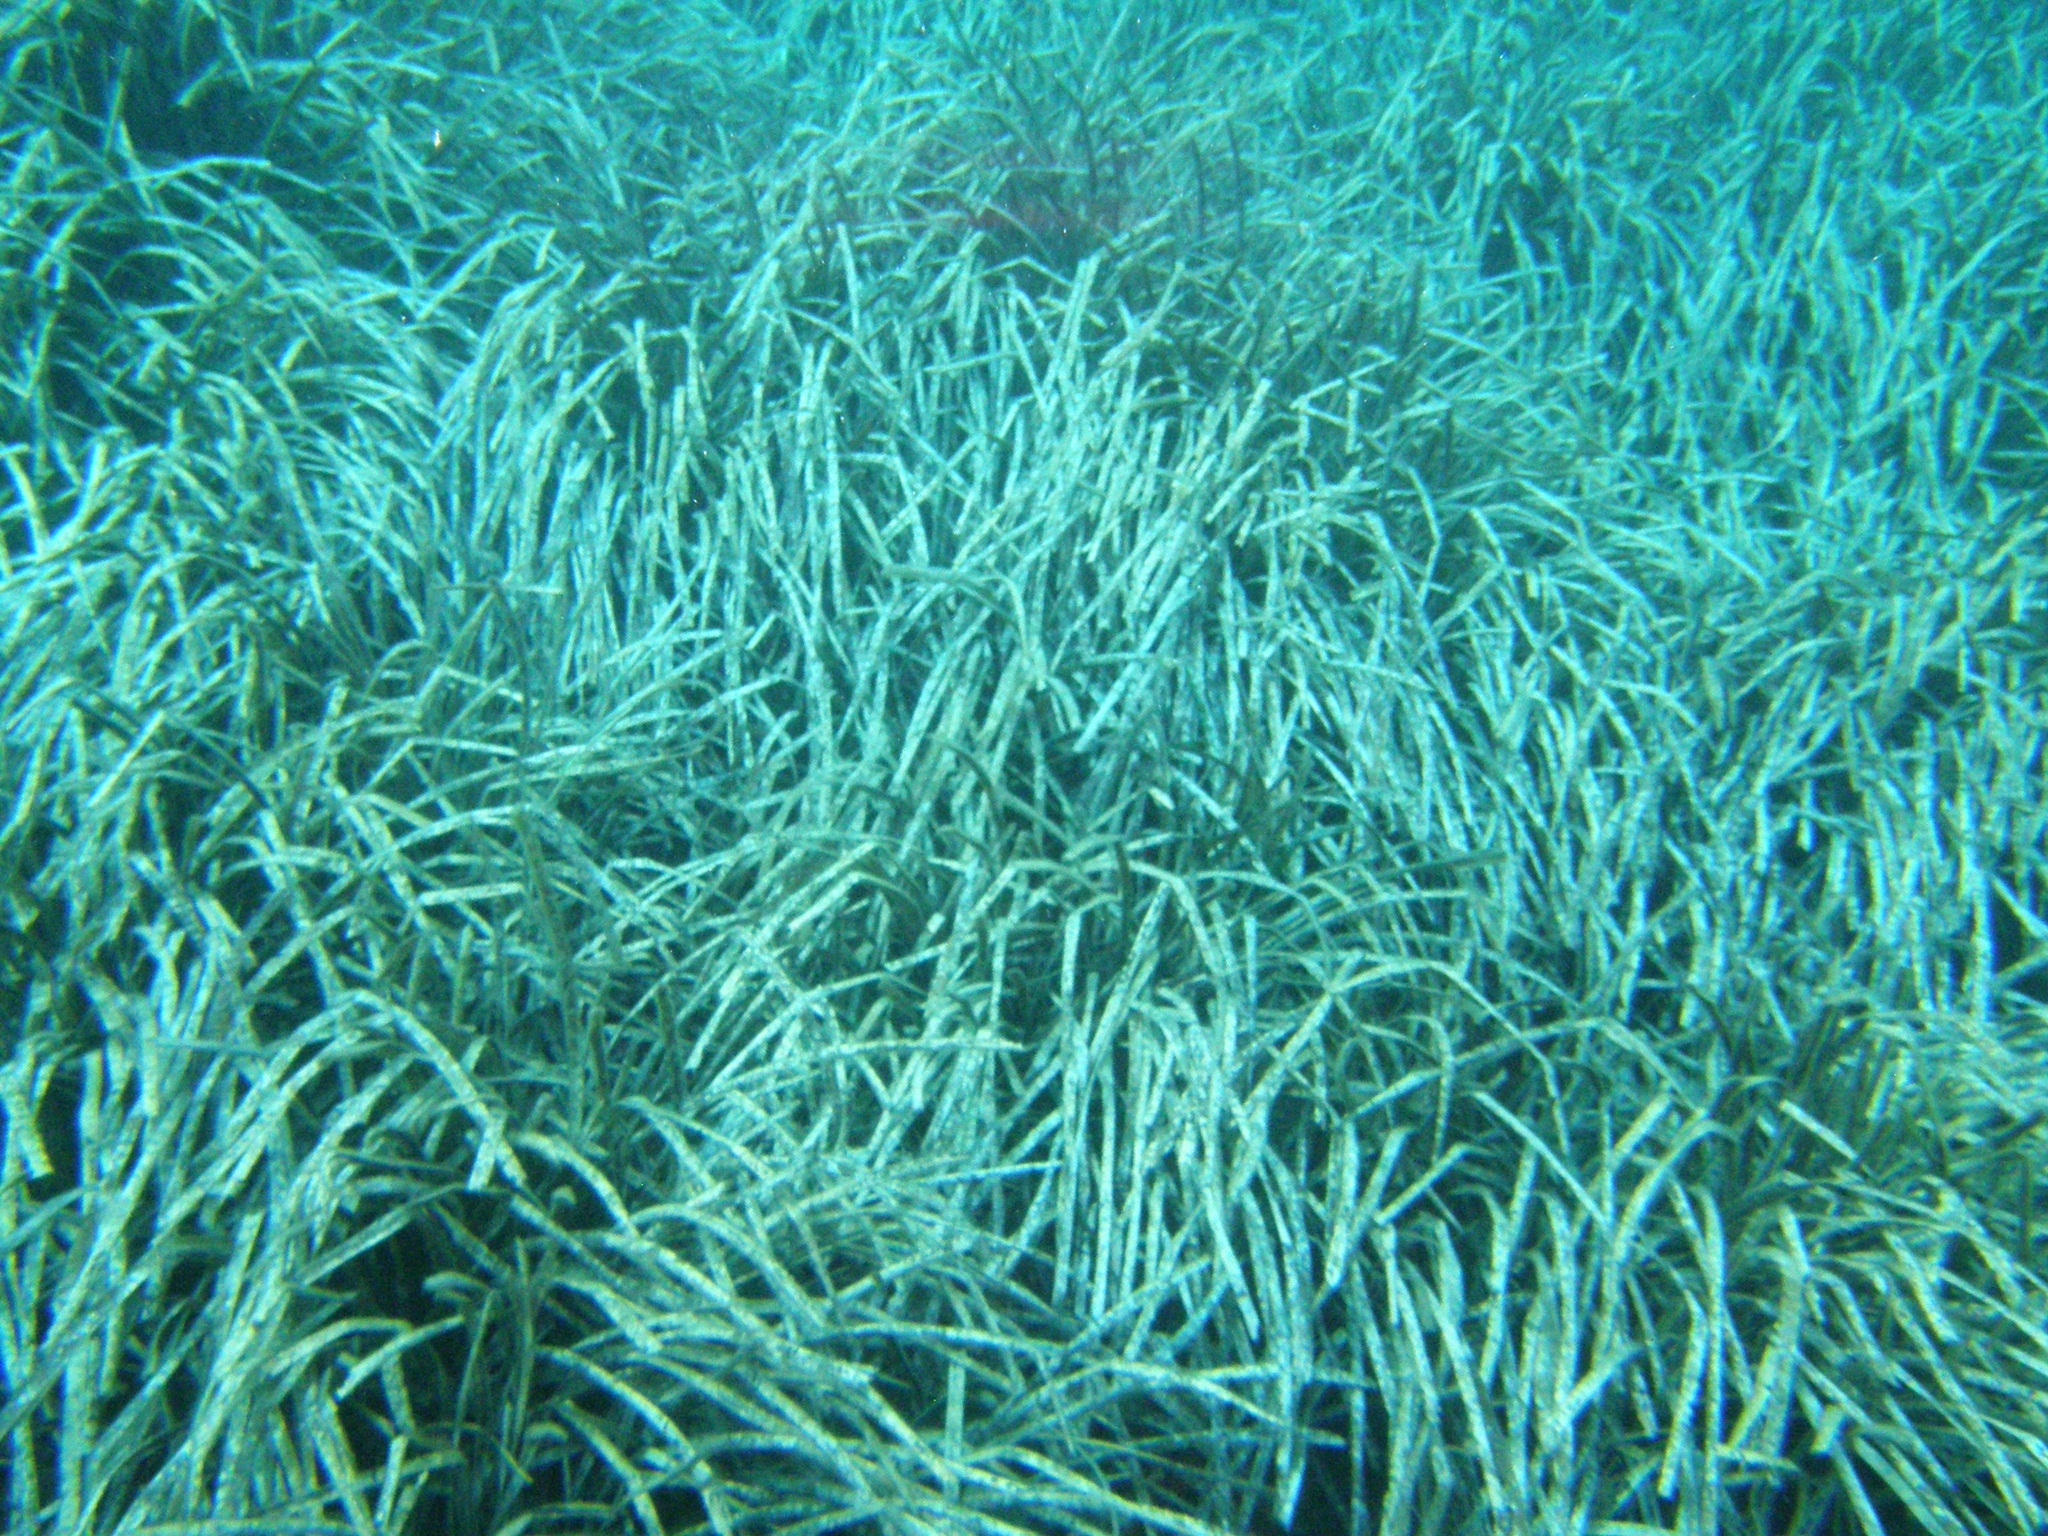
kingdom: Plantae
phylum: Tracheophyta
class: Liliopsida
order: Alismatales
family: Posidoniaceae
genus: Posidonia
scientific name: Posidonia oceanica
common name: Mediterranean tapeweed
